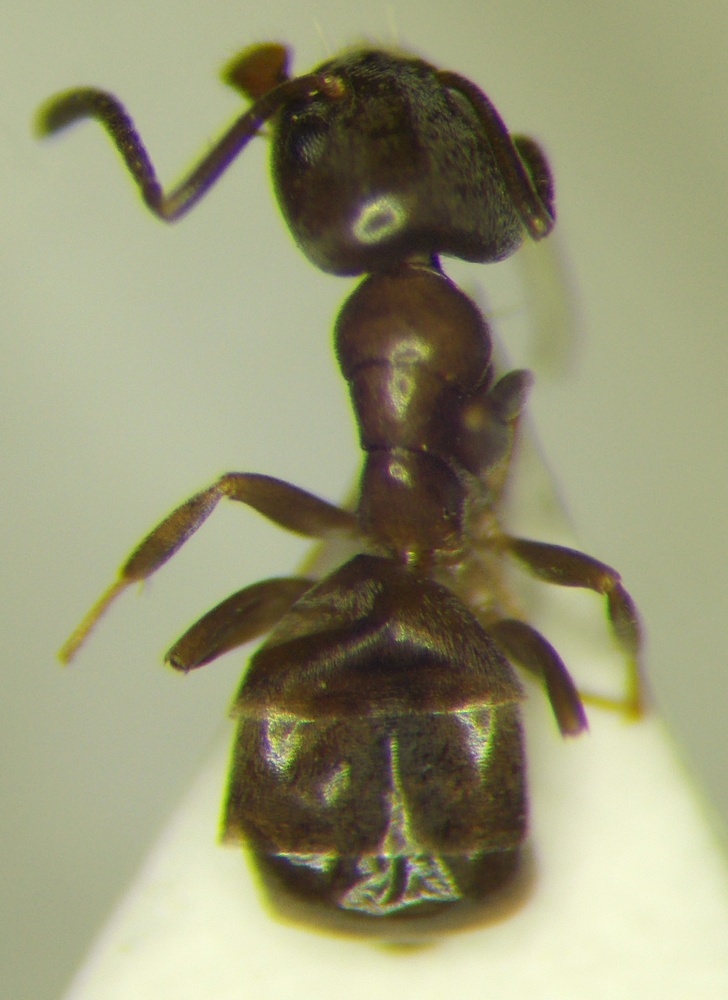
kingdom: Animalia
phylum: Arthropoda
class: Insecta
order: Hymenoptera
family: Formicidae
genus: Tapinoma
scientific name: Tapinoma emeryanum
